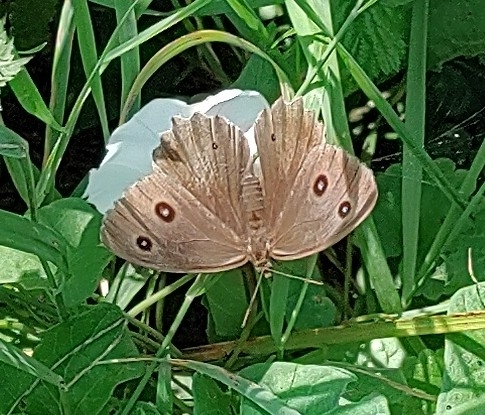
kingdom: Animalia
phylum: Arthropoda
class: Insecta
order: Lepidoptera
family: Nymphalidae
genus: Minois
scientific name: Minois dryas
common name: Dryad
